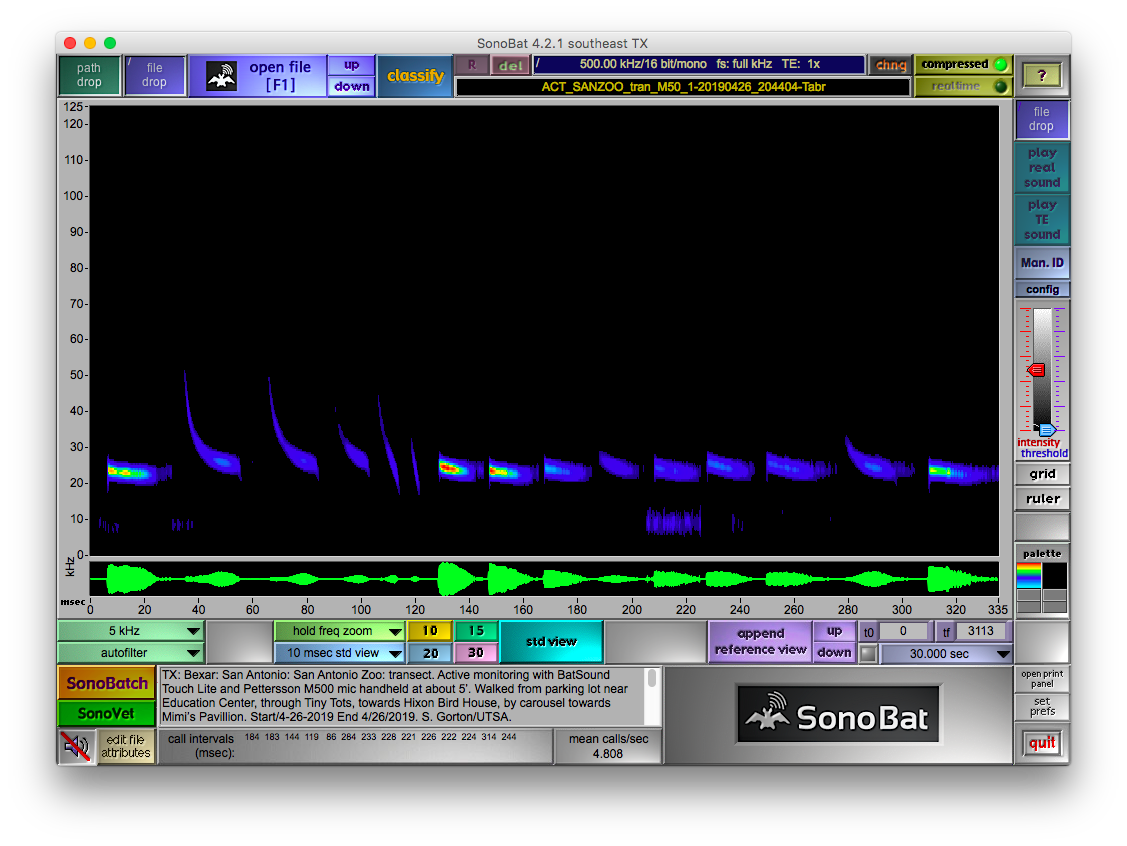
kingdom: Animalia
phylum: Chordata
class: Mammalia
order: Chiroptera
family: Molossidae
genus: Tadarida
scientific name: Tadarida brasiliensis
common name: Mexican free-tailed bat
